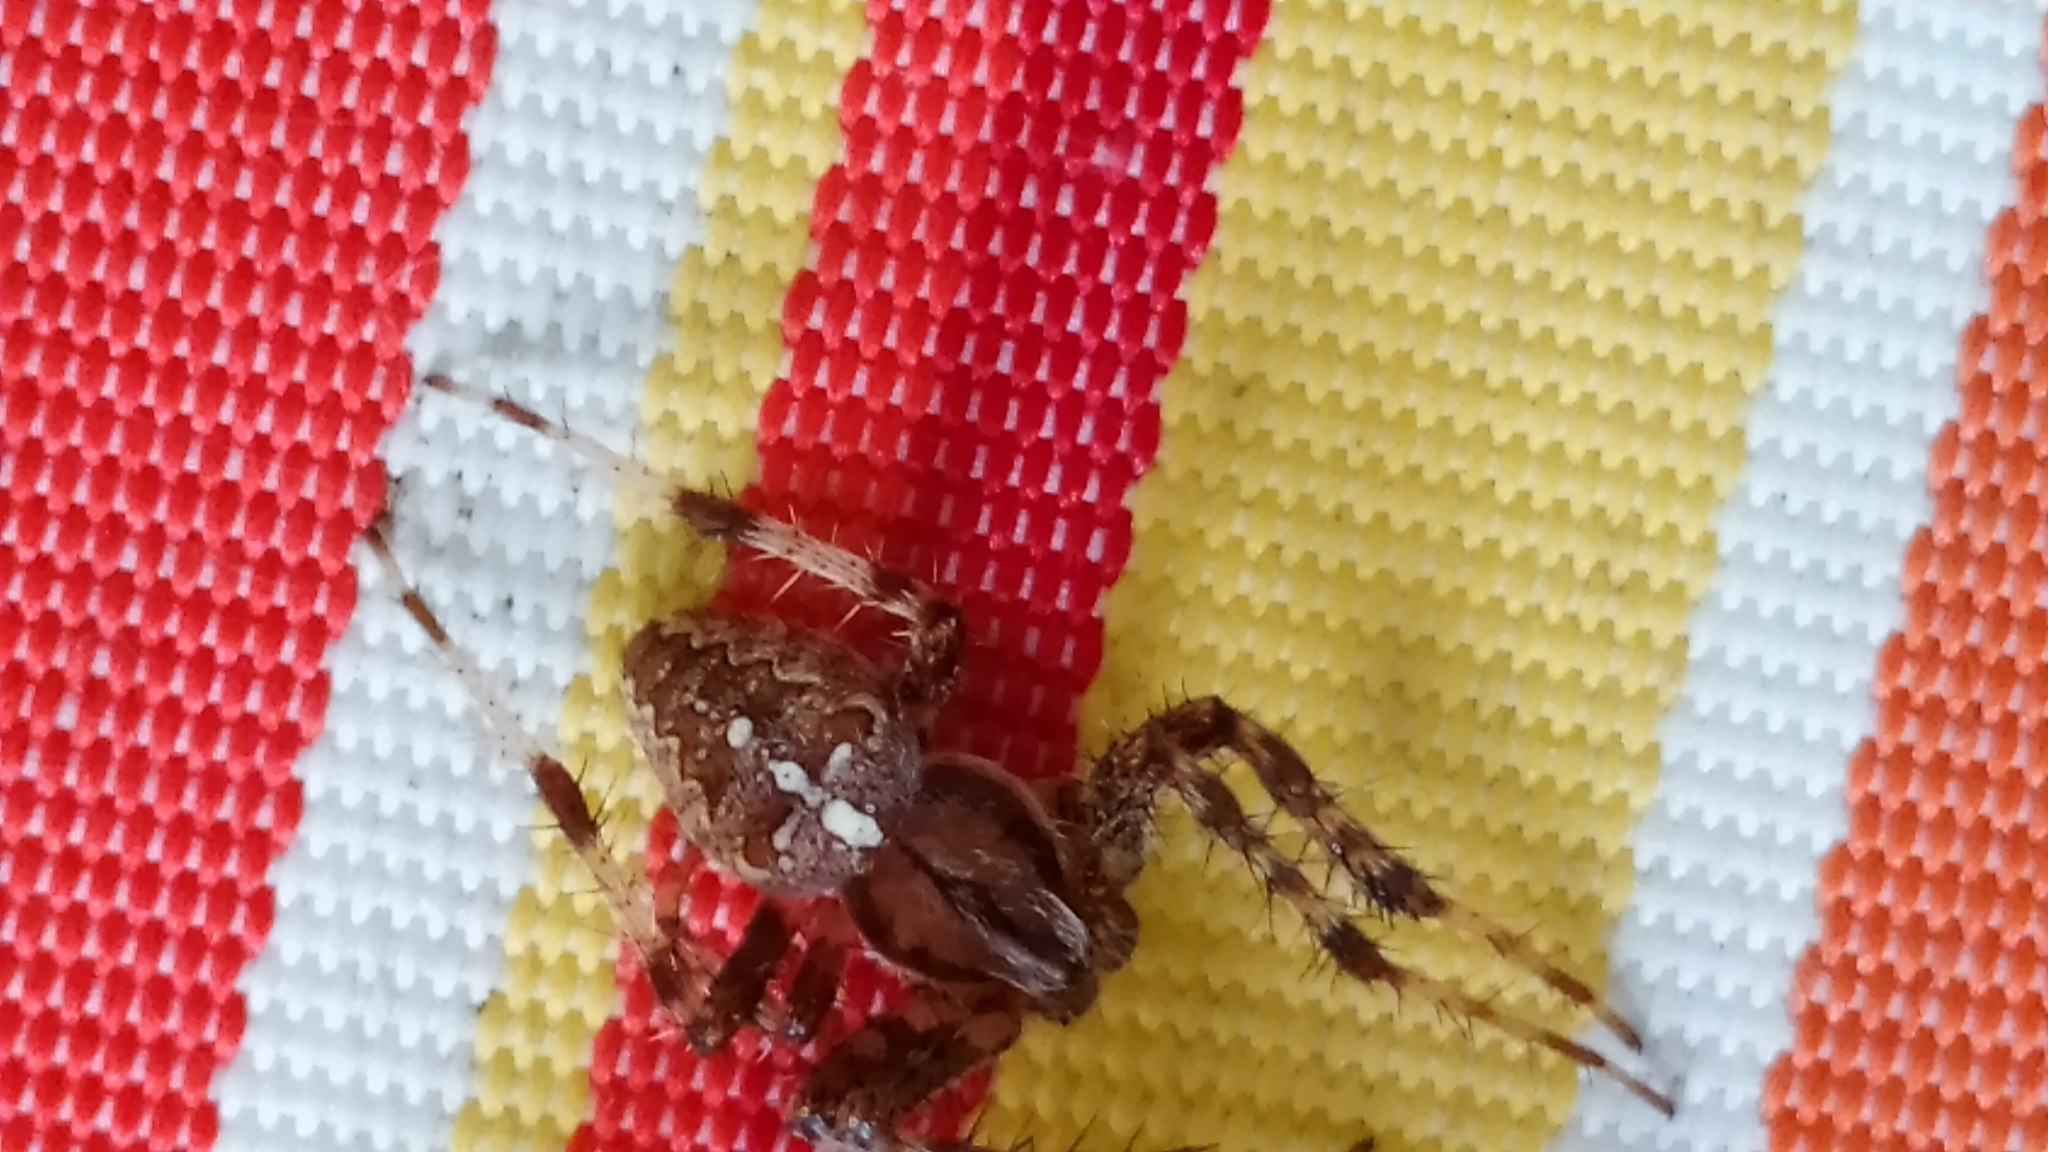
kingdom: Animalia
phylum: Arthropoda
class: Arachnida
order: Araneae
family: Araneidae
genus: Araneus
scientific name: Araneus diadematus
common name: Cross orbweaver
